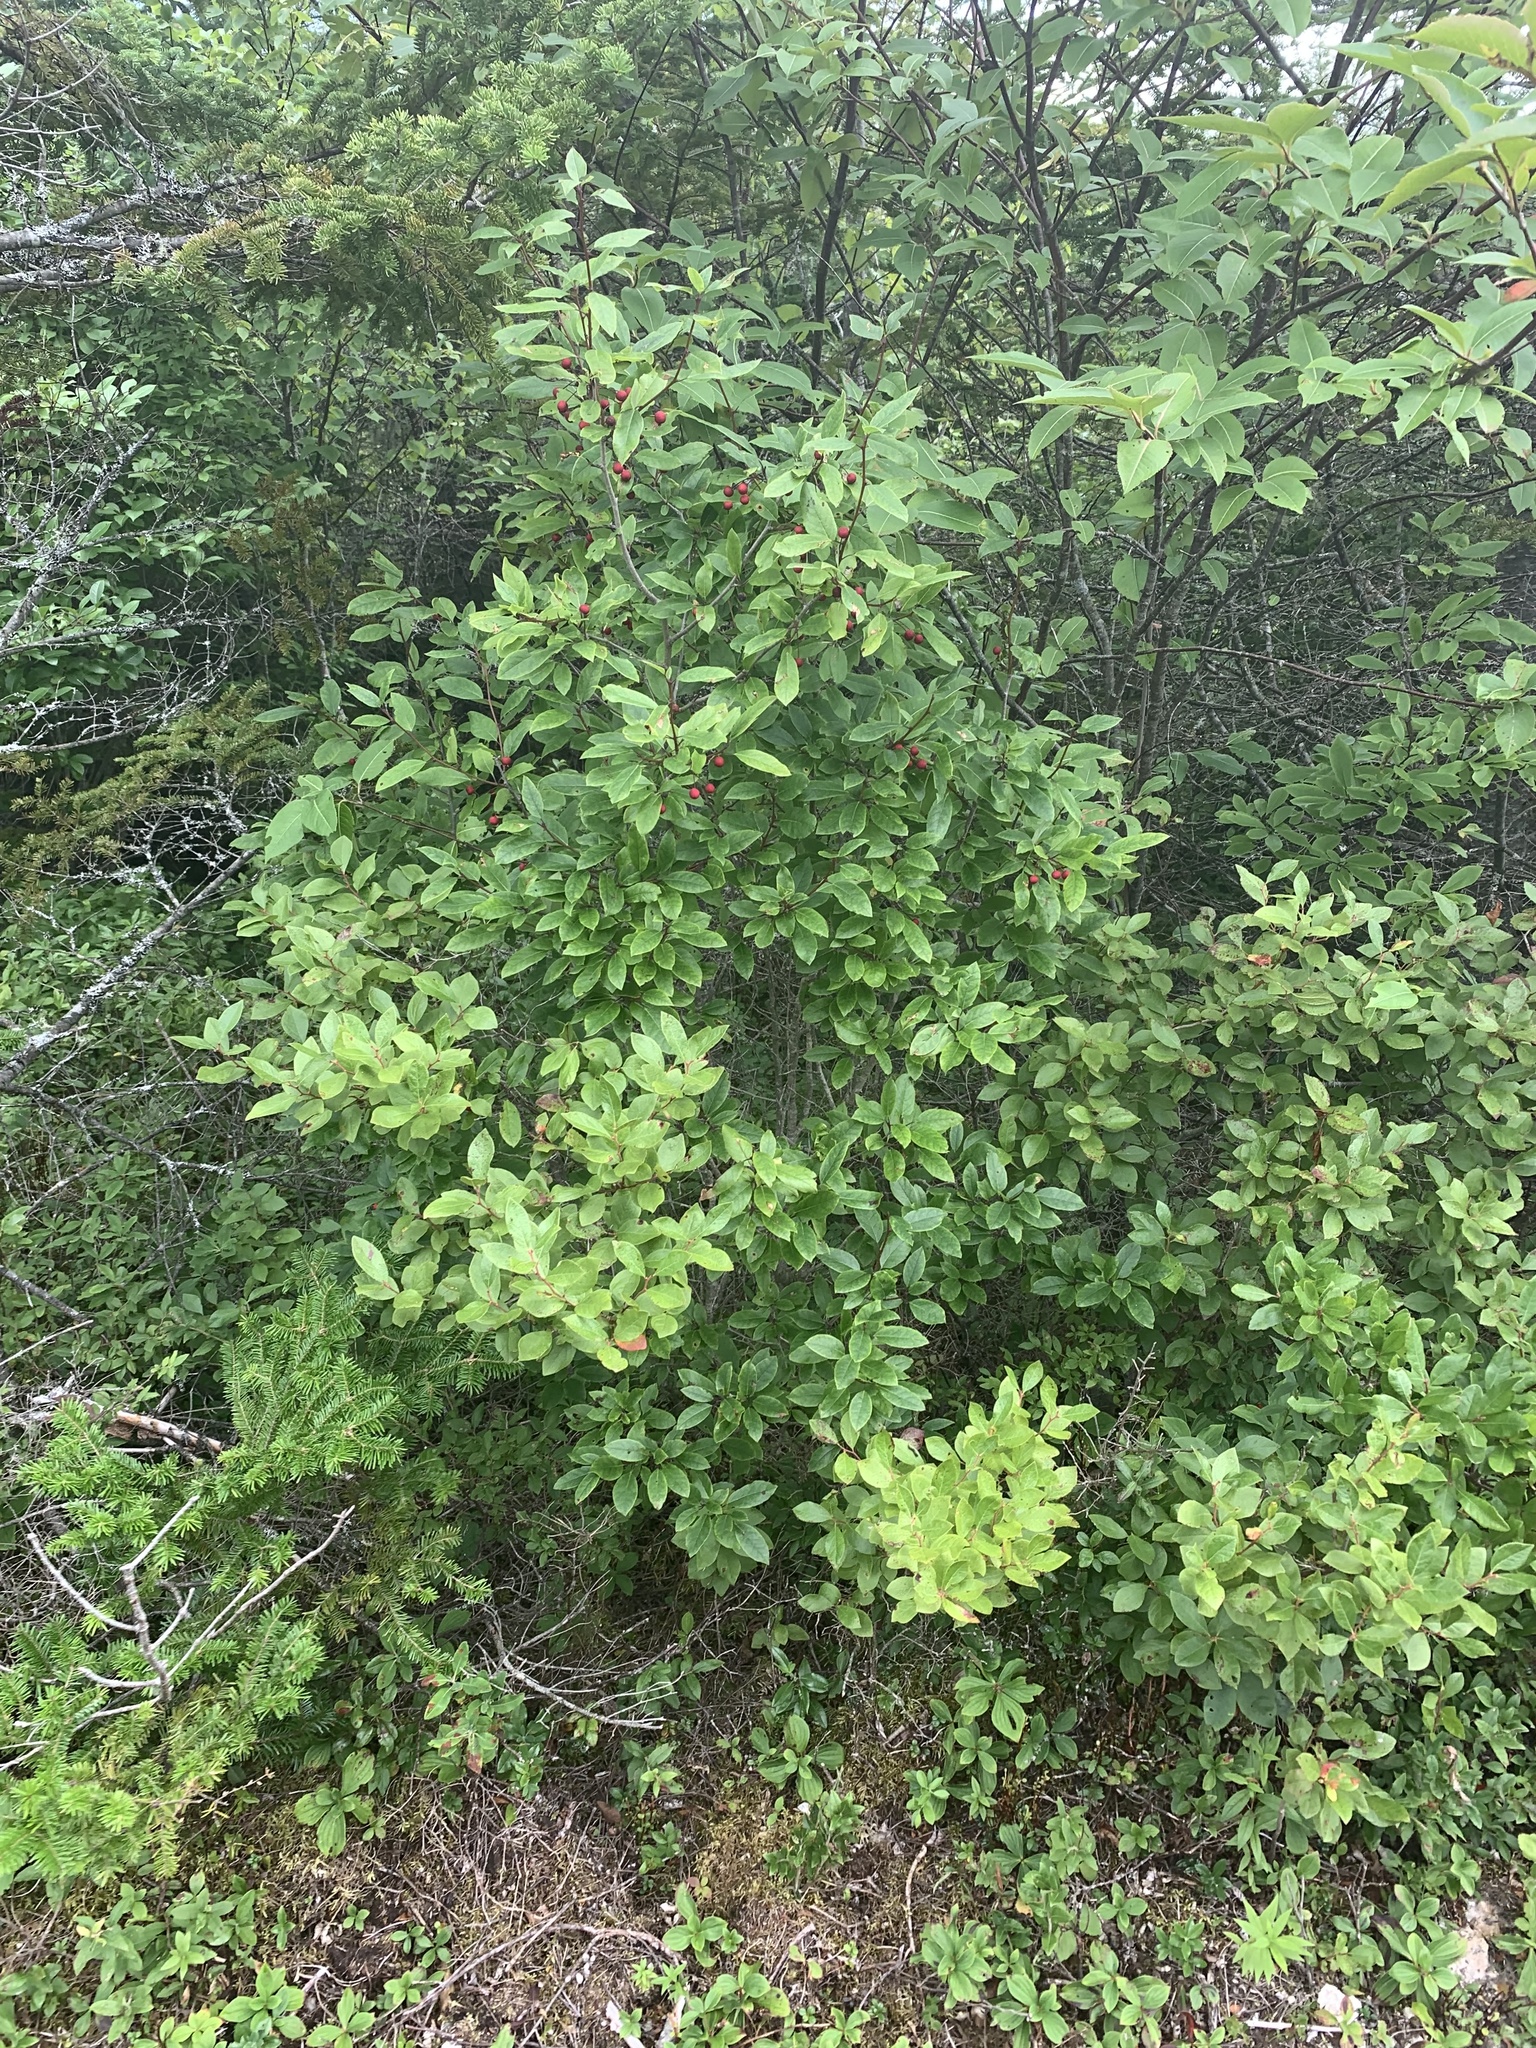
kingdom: Plantae
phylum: Tracheophyta
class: Magnoliopsida
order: Aquifoliales
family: Aquifoliaceae
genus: Ilex
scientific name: Ilex mucronata
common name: Catberry
